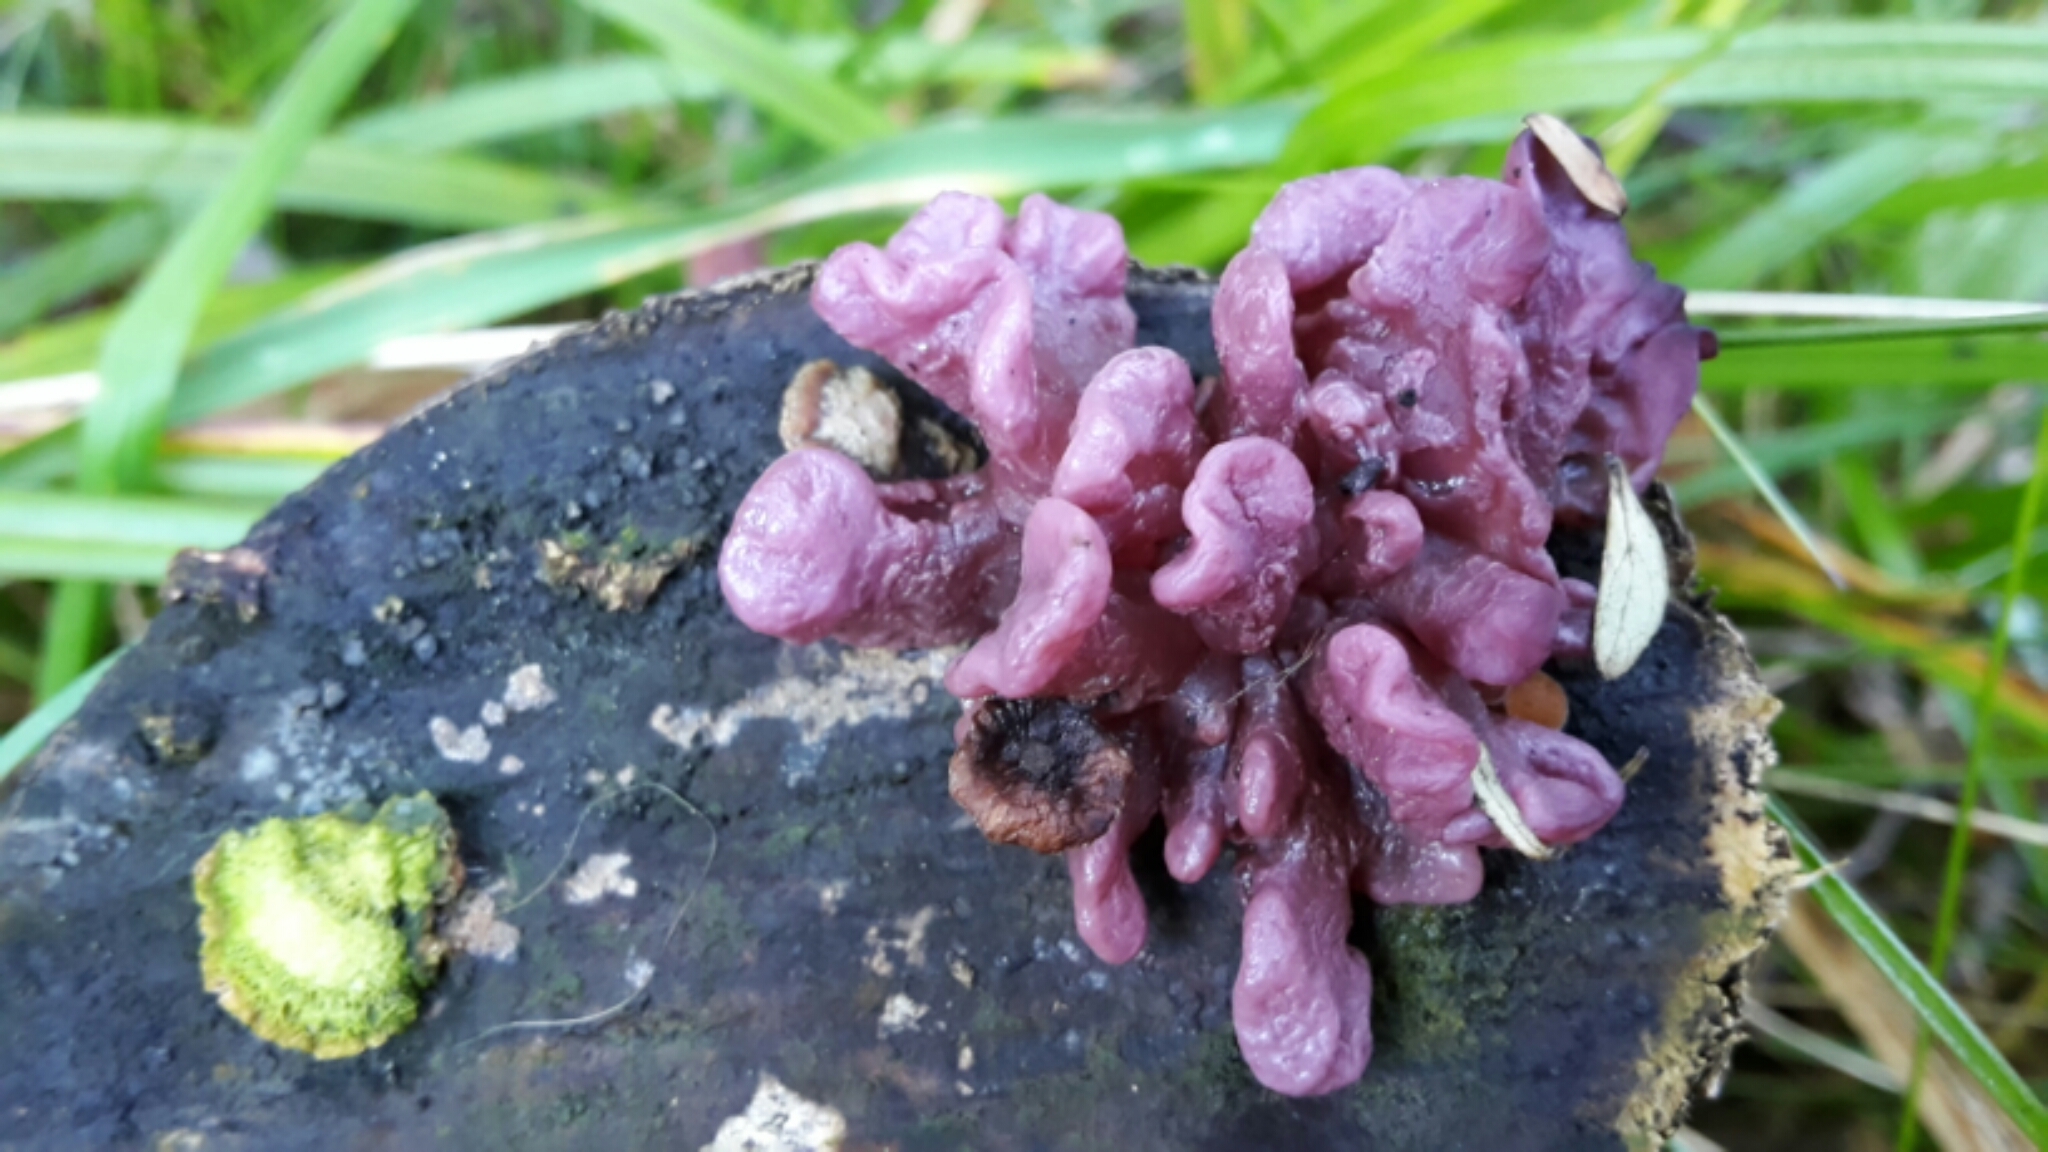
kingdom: Fungi
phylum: Ascomycota
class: Leotiomycetes
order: Helotiales
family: Gelatinodiscaceae
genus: Ascocoryne
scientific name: Ascocoryne sarcoides
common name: Purple jellydisc
